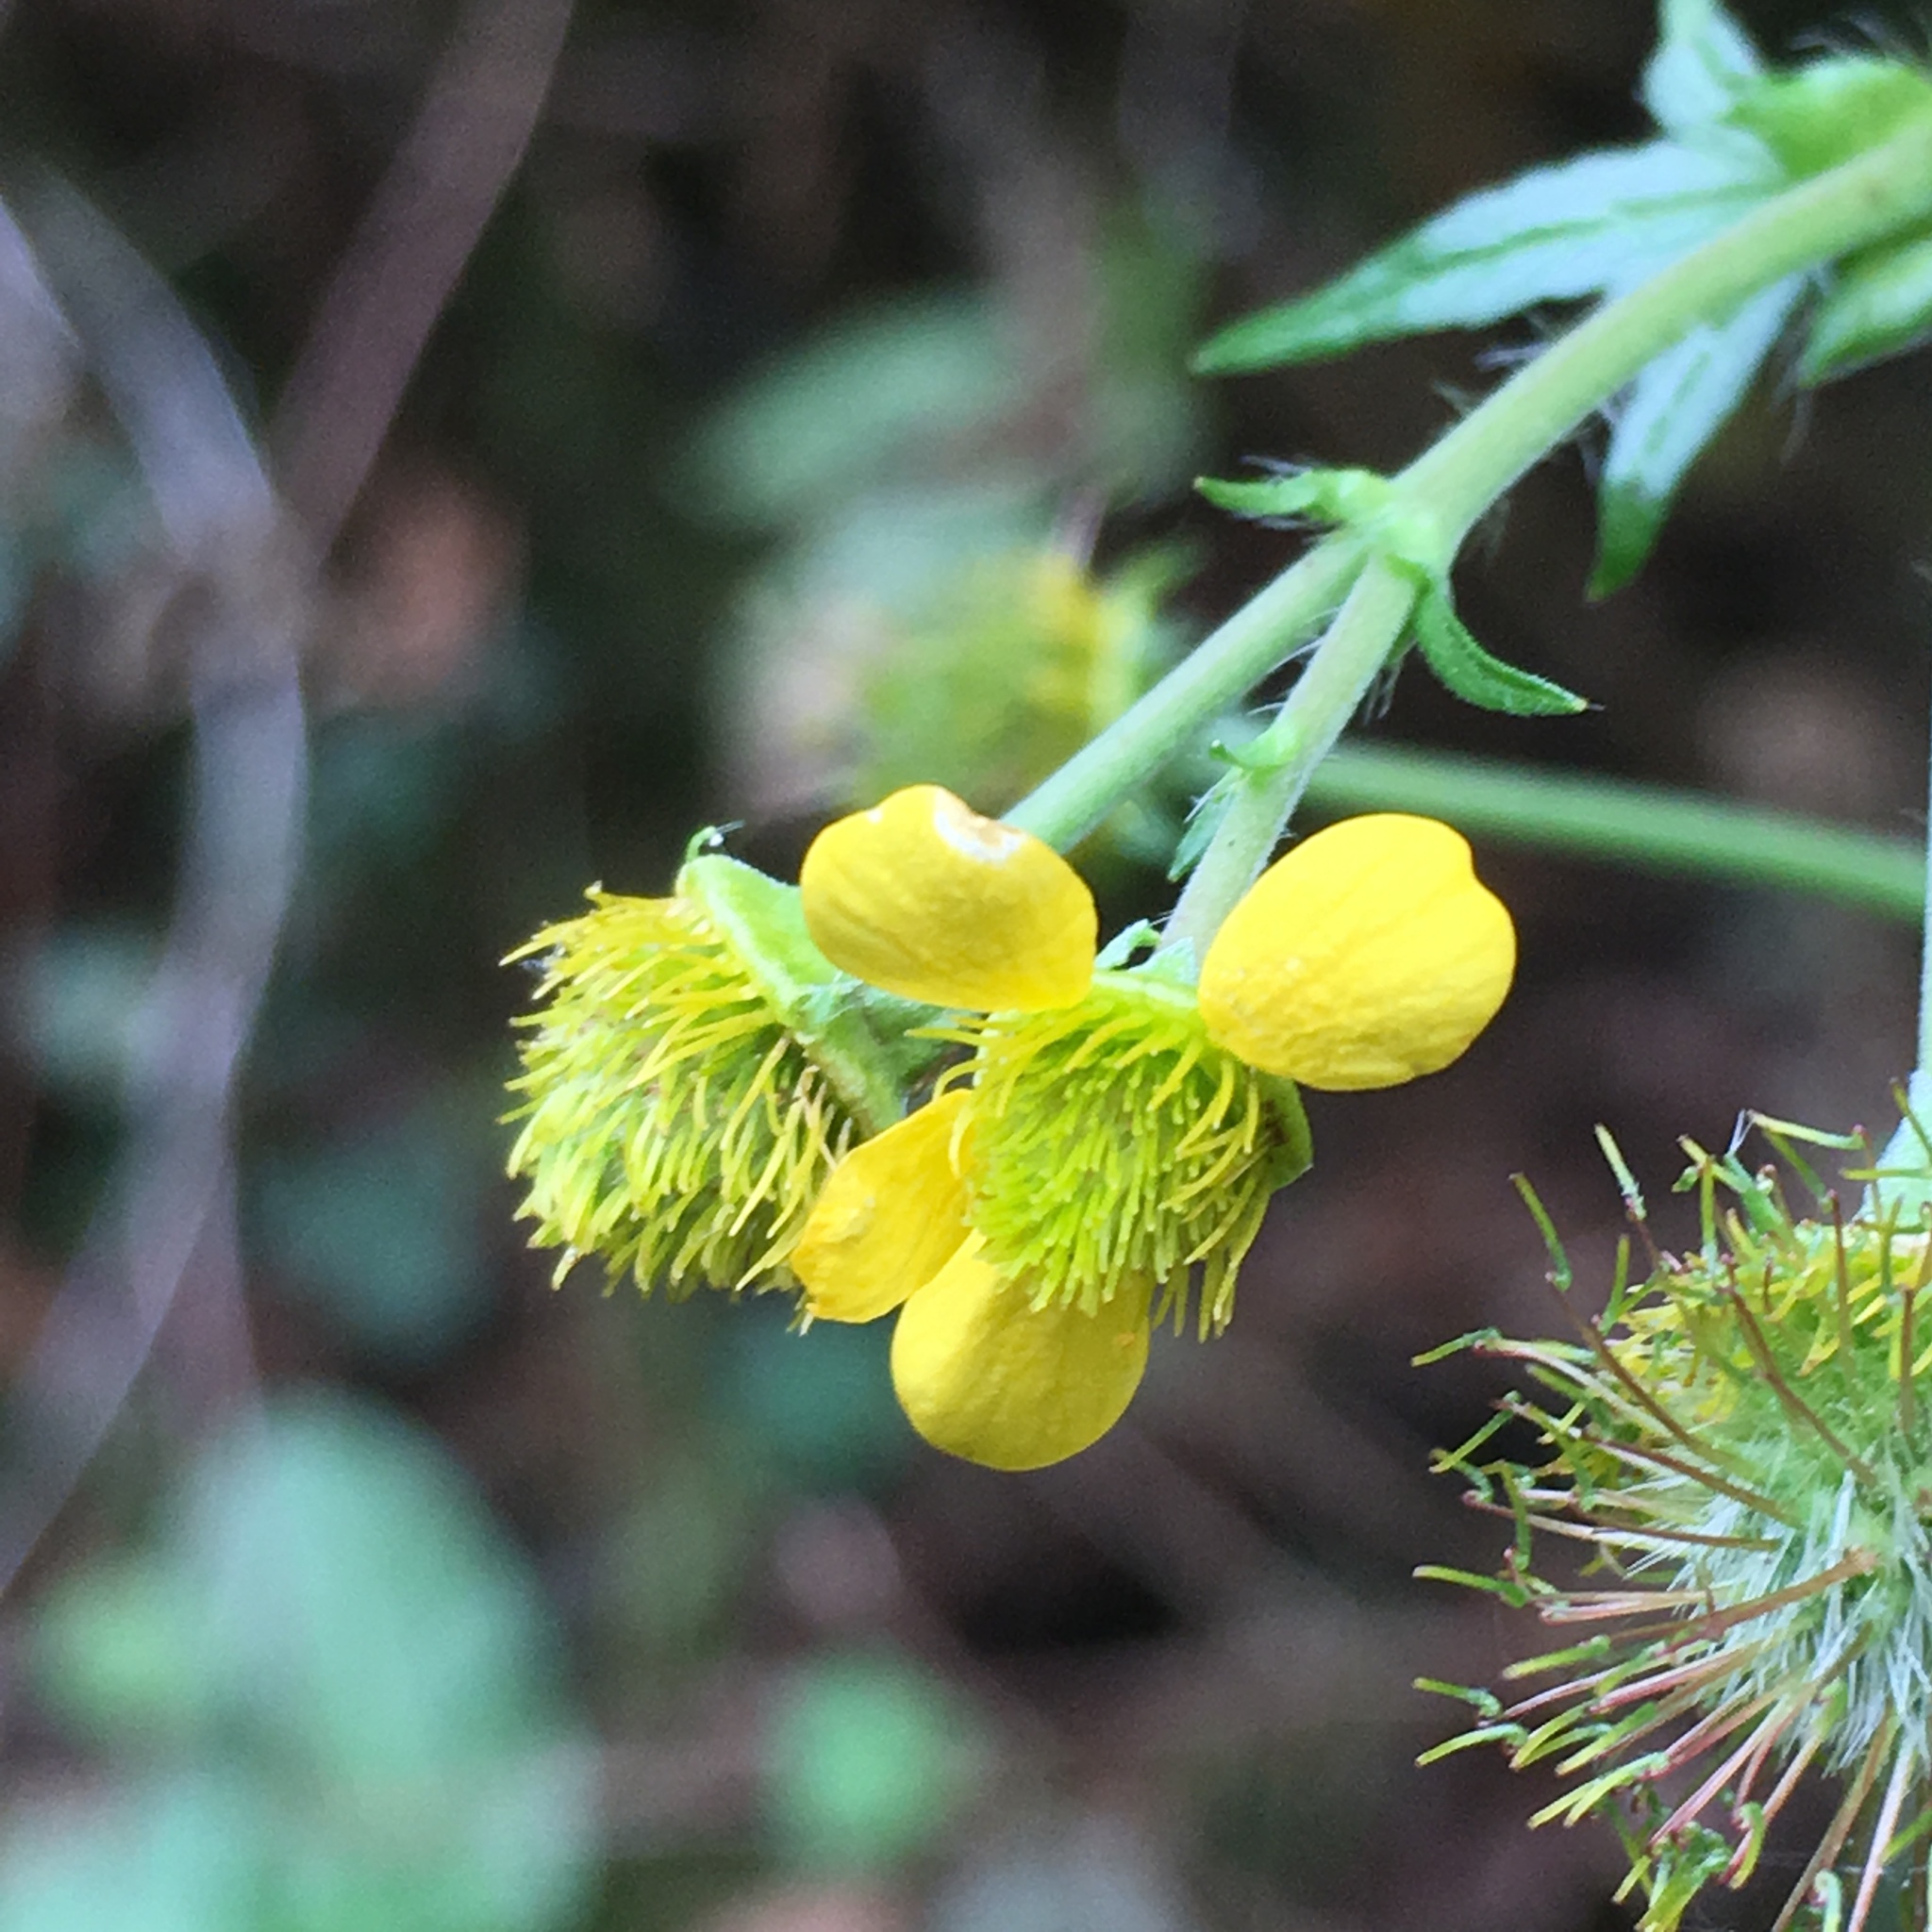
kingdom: Plantae
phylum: Tracheophyta
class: Magnoliopsida
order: Rosales
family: Rosaceae
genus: Geum
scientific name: Geum macrophyllum
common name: Large-leaved avens
